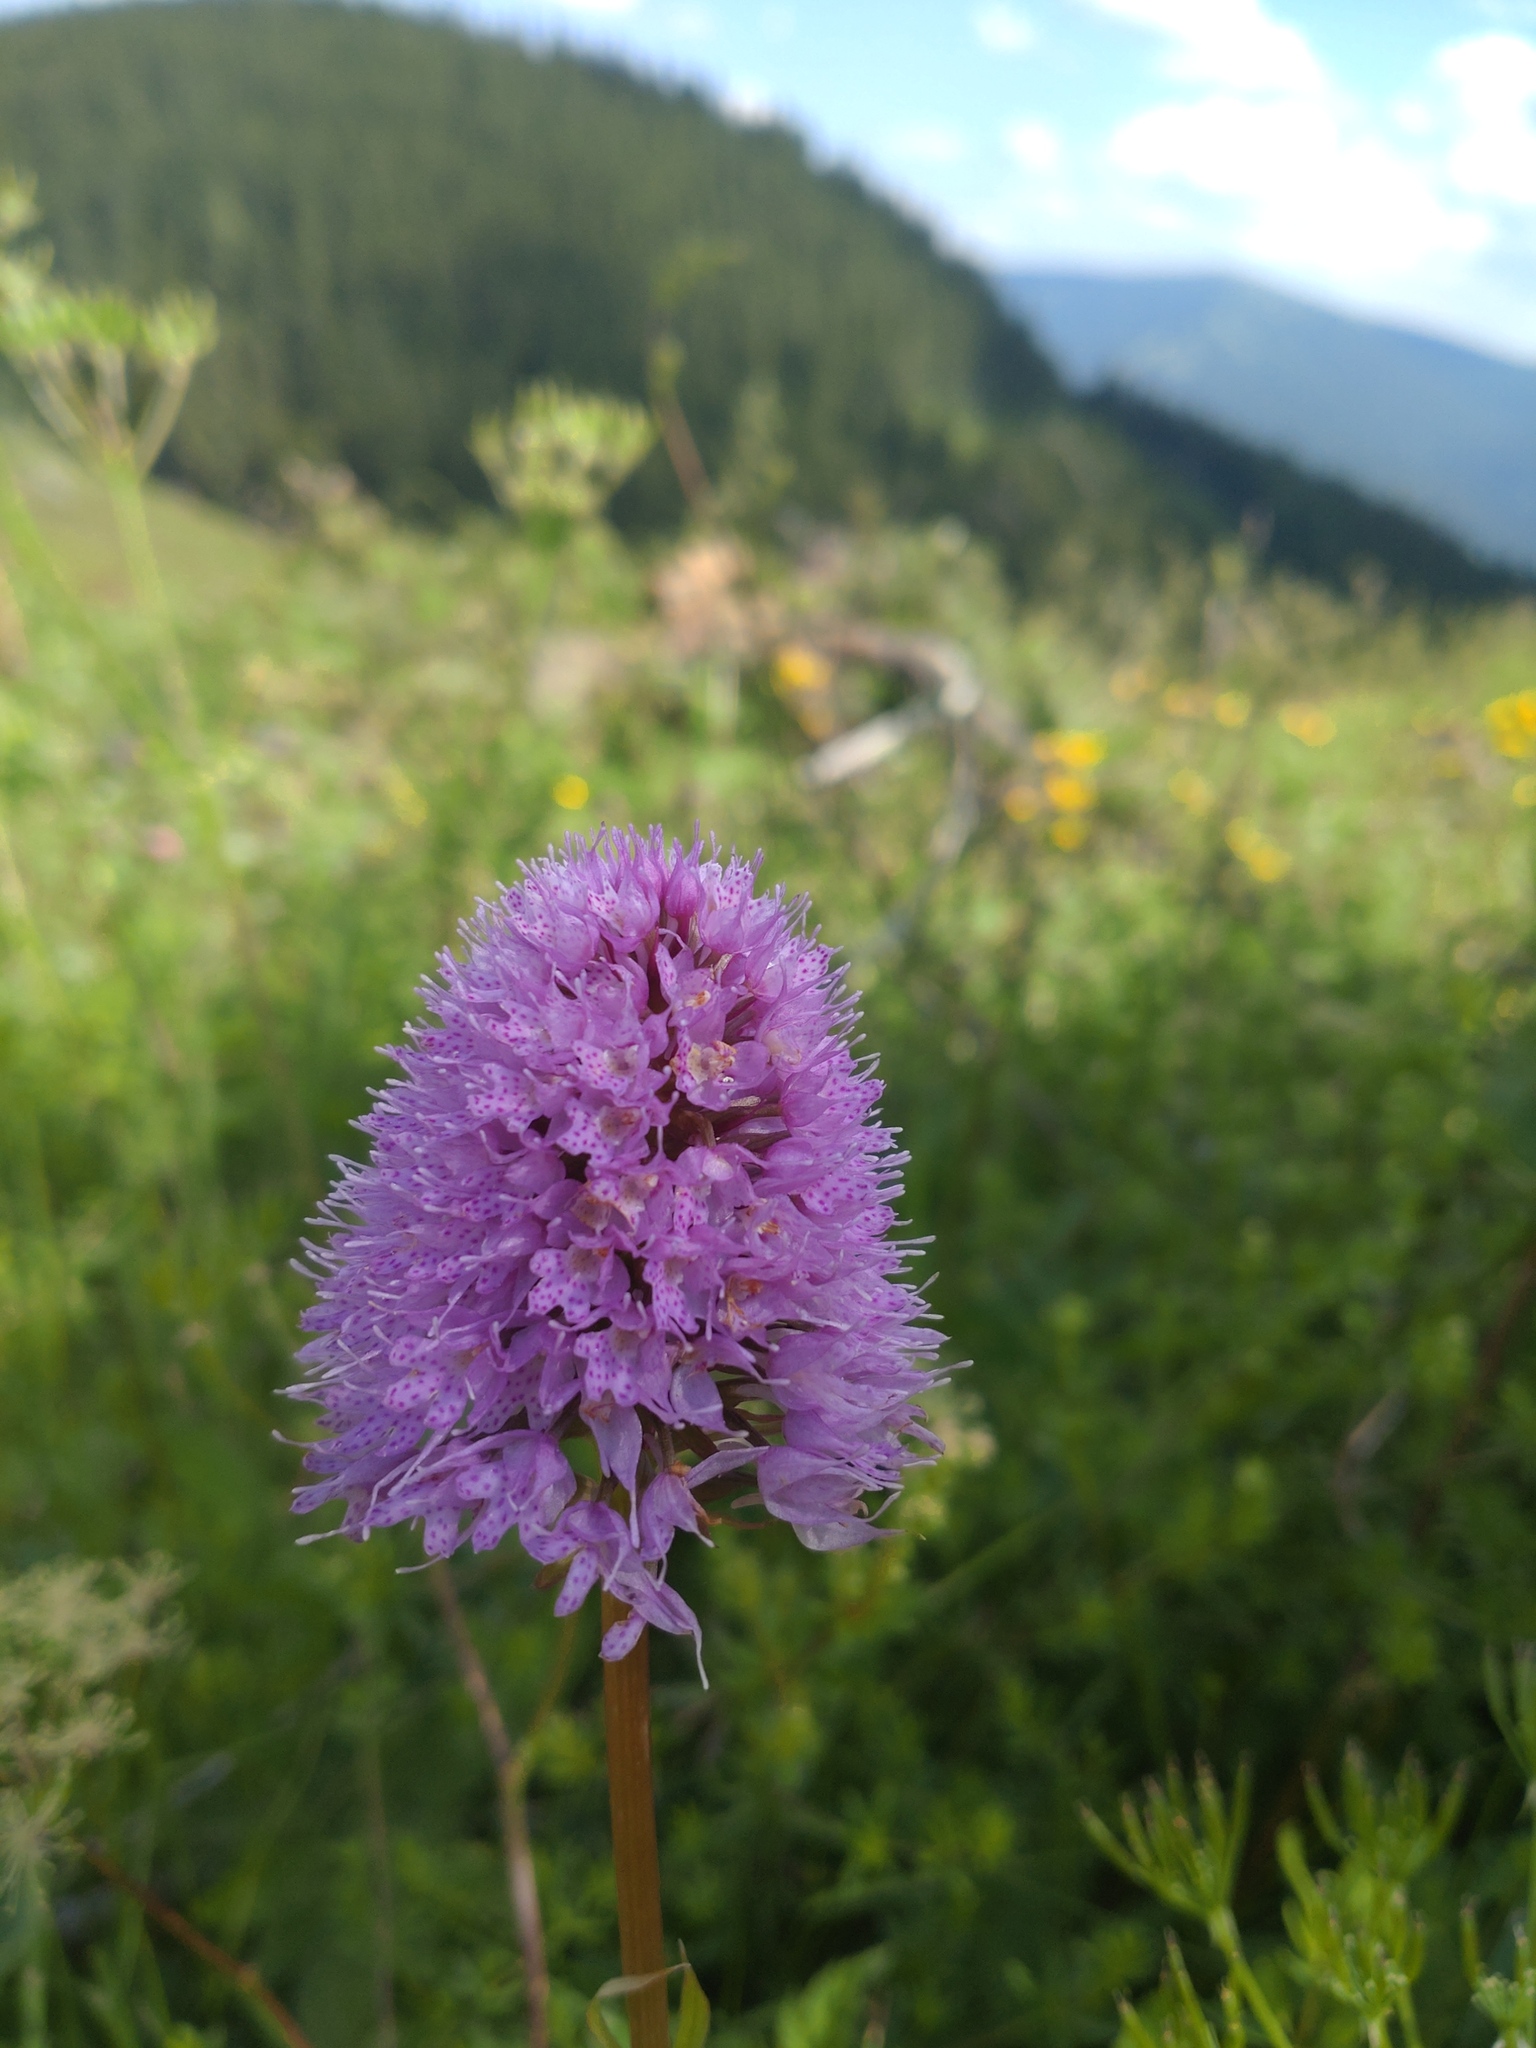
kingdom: Plantae
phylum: Tracheophyta
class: Liliopsida
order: Asparagales
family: Orchidaceae
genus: Traunsteinera
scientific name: Traunsteinera globosa
